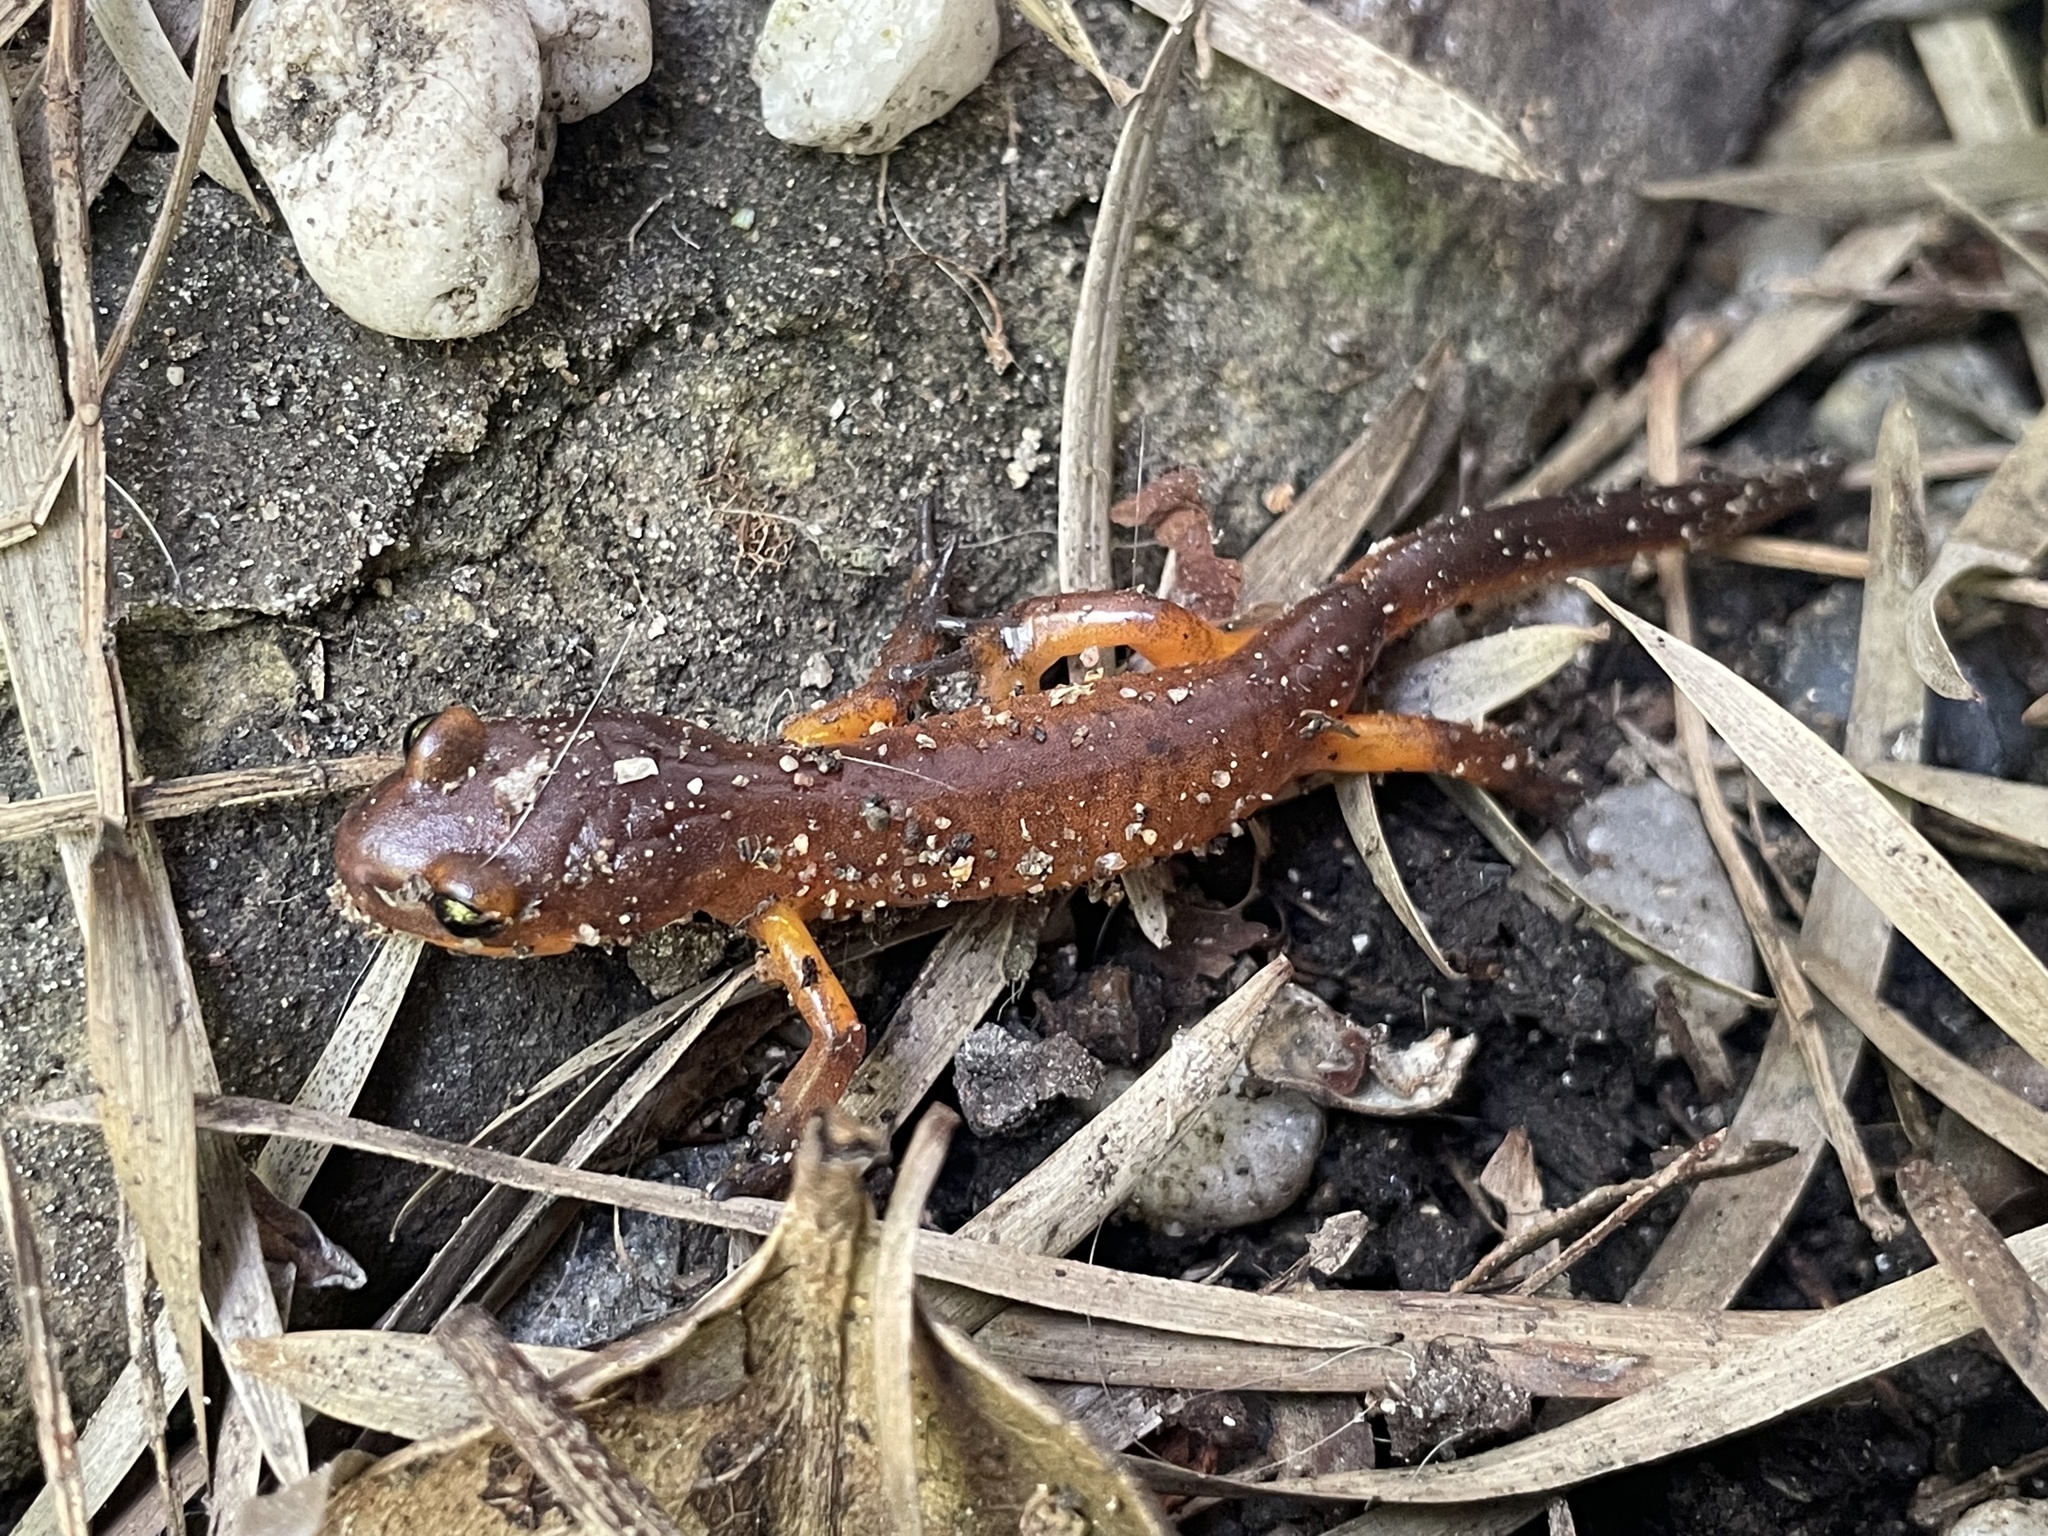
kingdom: Animalia
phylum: Chordata
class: Amphibia
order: Caudata
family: Plethodontidae
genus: Ensatina
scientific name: Ensatina eschscholtzii
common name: Ensatina
